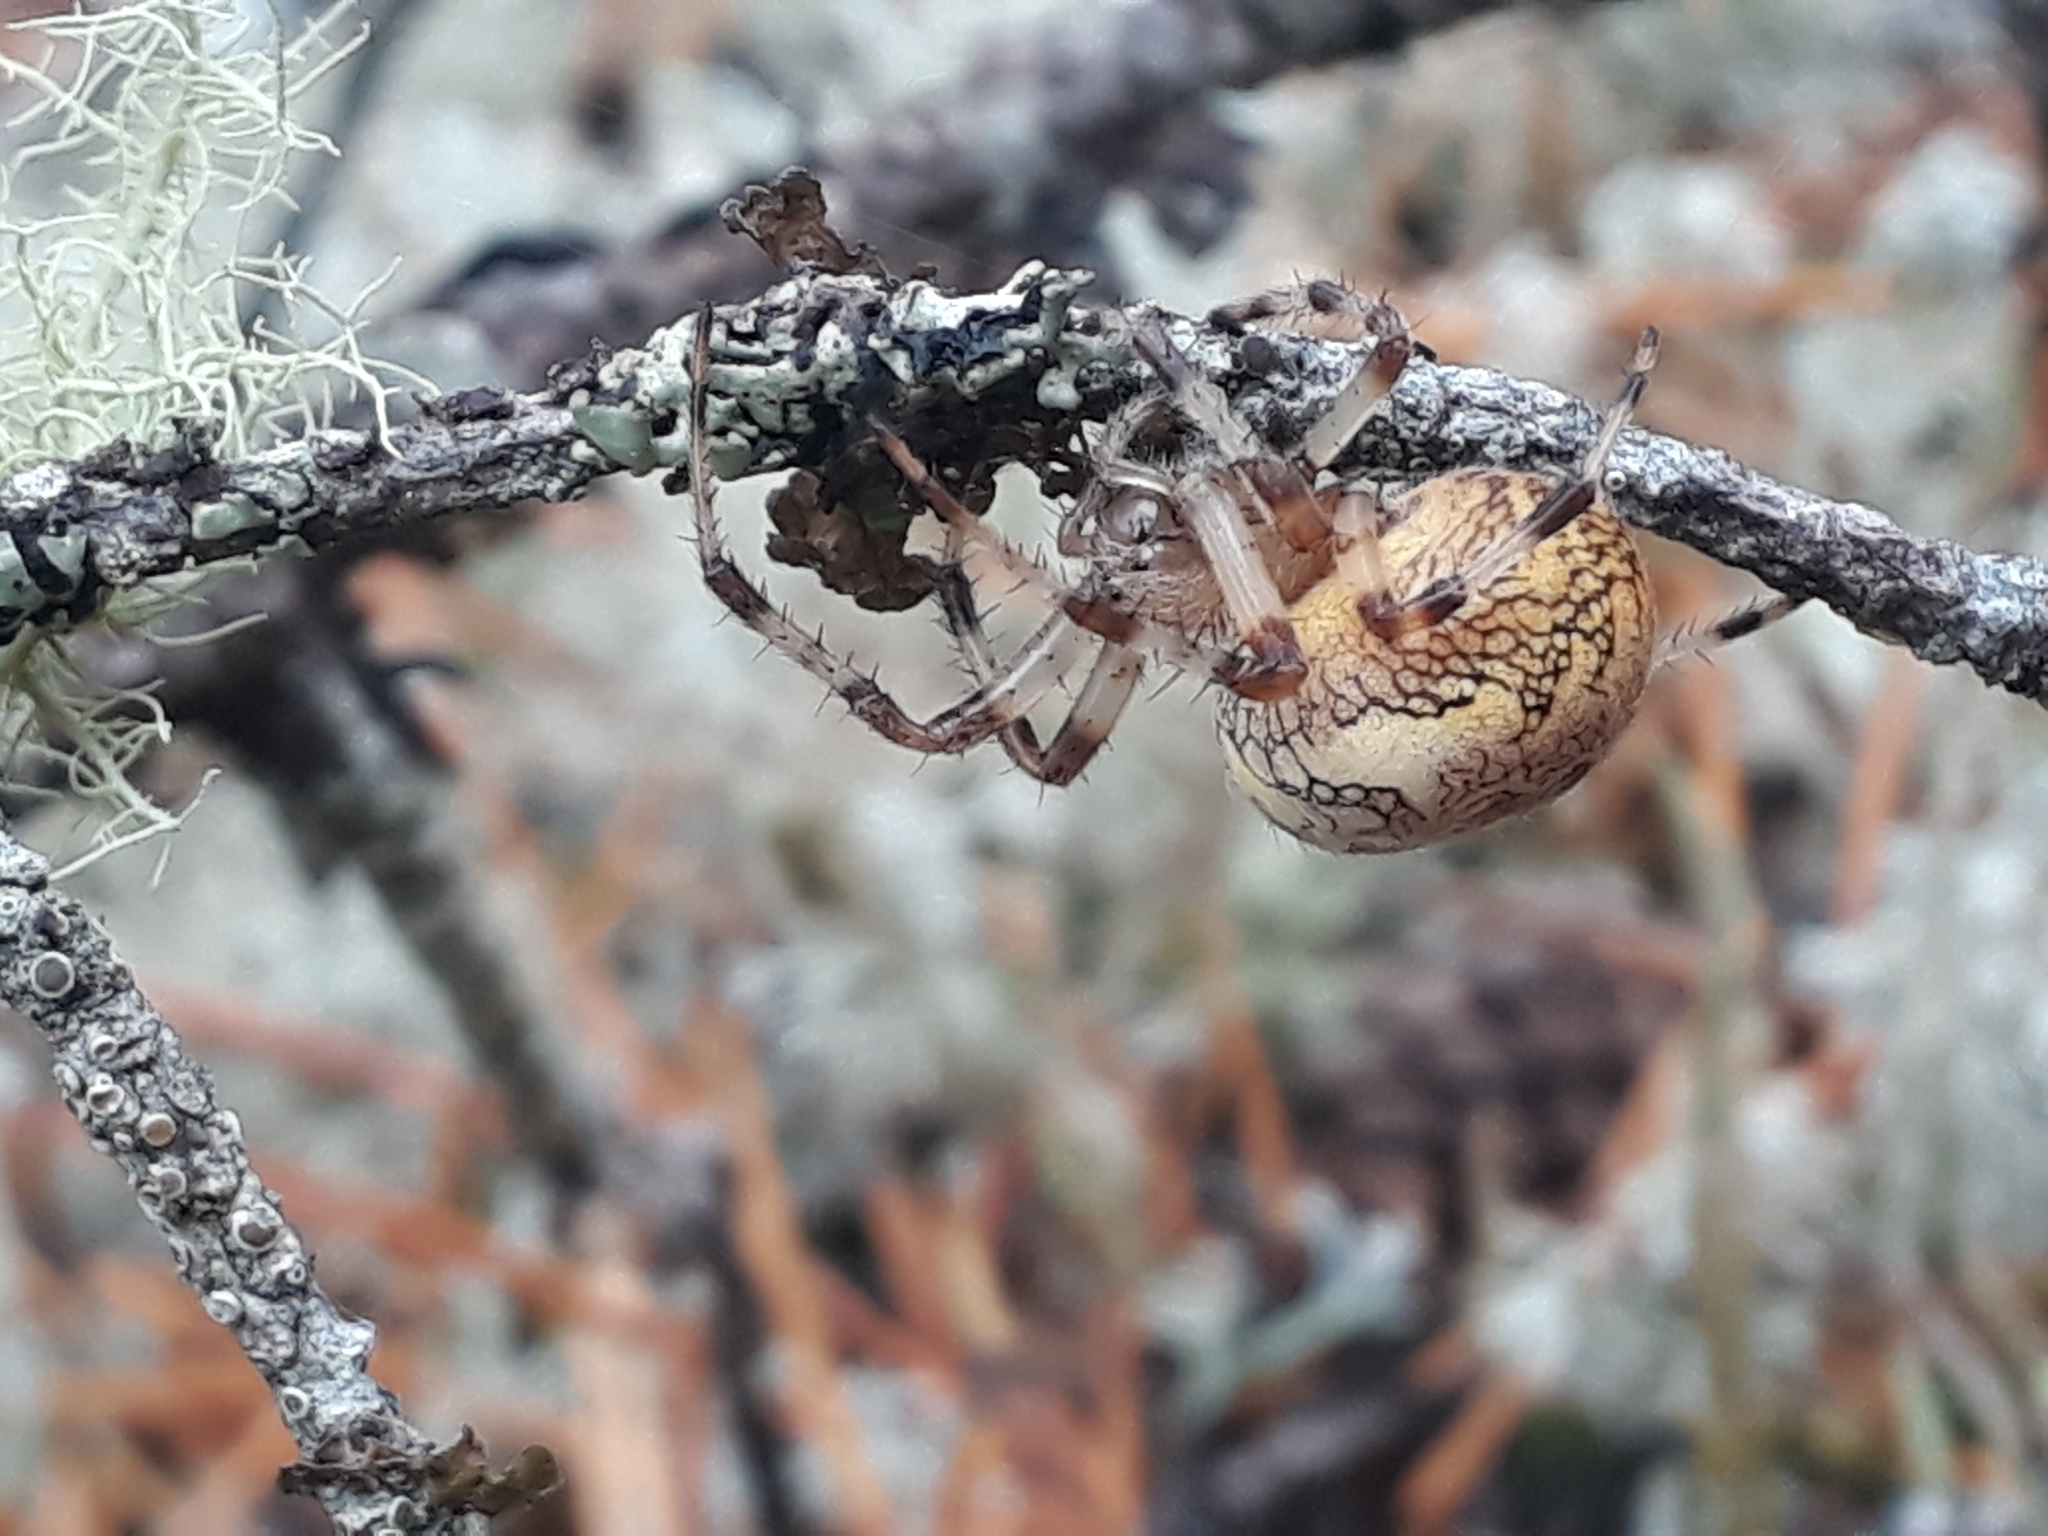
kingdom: Animalia
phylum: Arthropoda
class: Arachnida
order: Araneae
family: Araneidae
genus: Araneus
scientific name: Araneus marmoreus
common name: Marbled orbweaver
